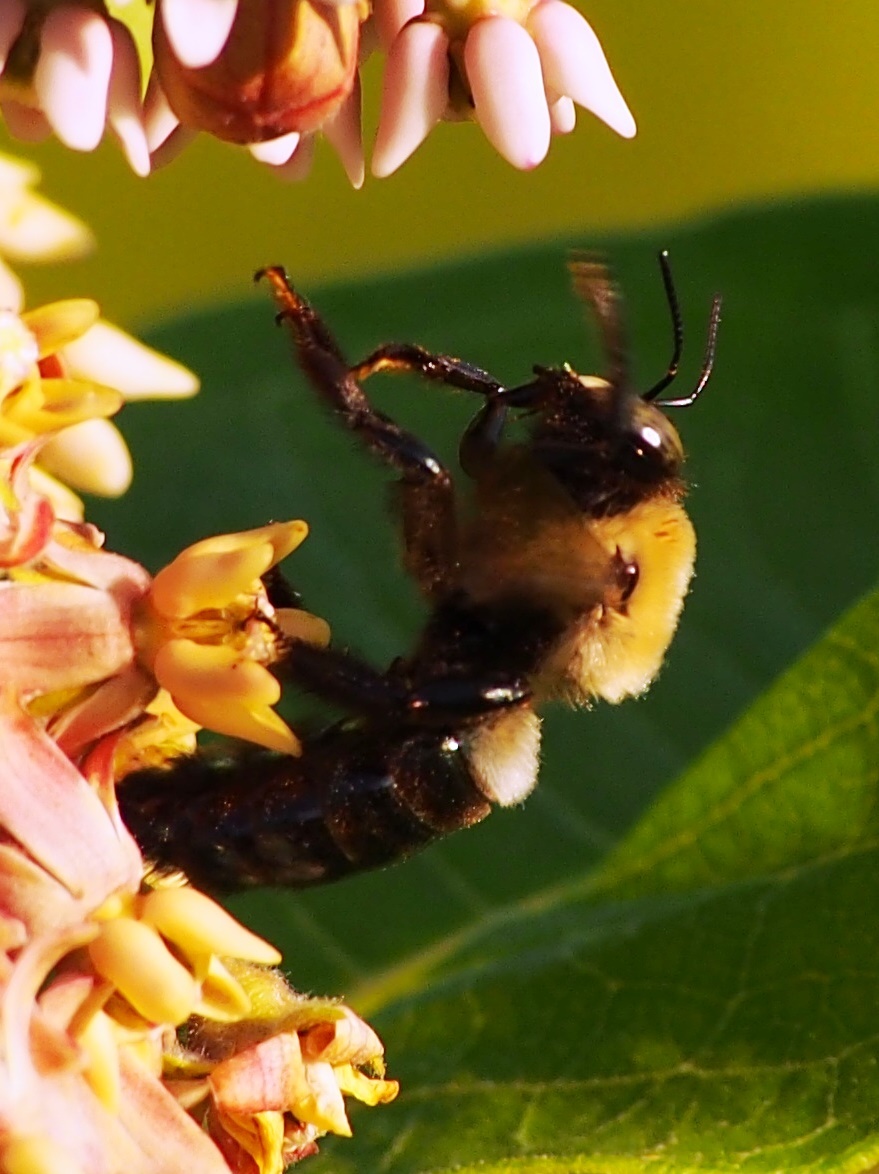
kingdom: Animalia
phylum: Arthropoda
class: Insecta
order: Hymenoptera
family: Apidae
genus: Xylocopa
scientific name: Xylocopa virginica
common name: Carpenter bee
